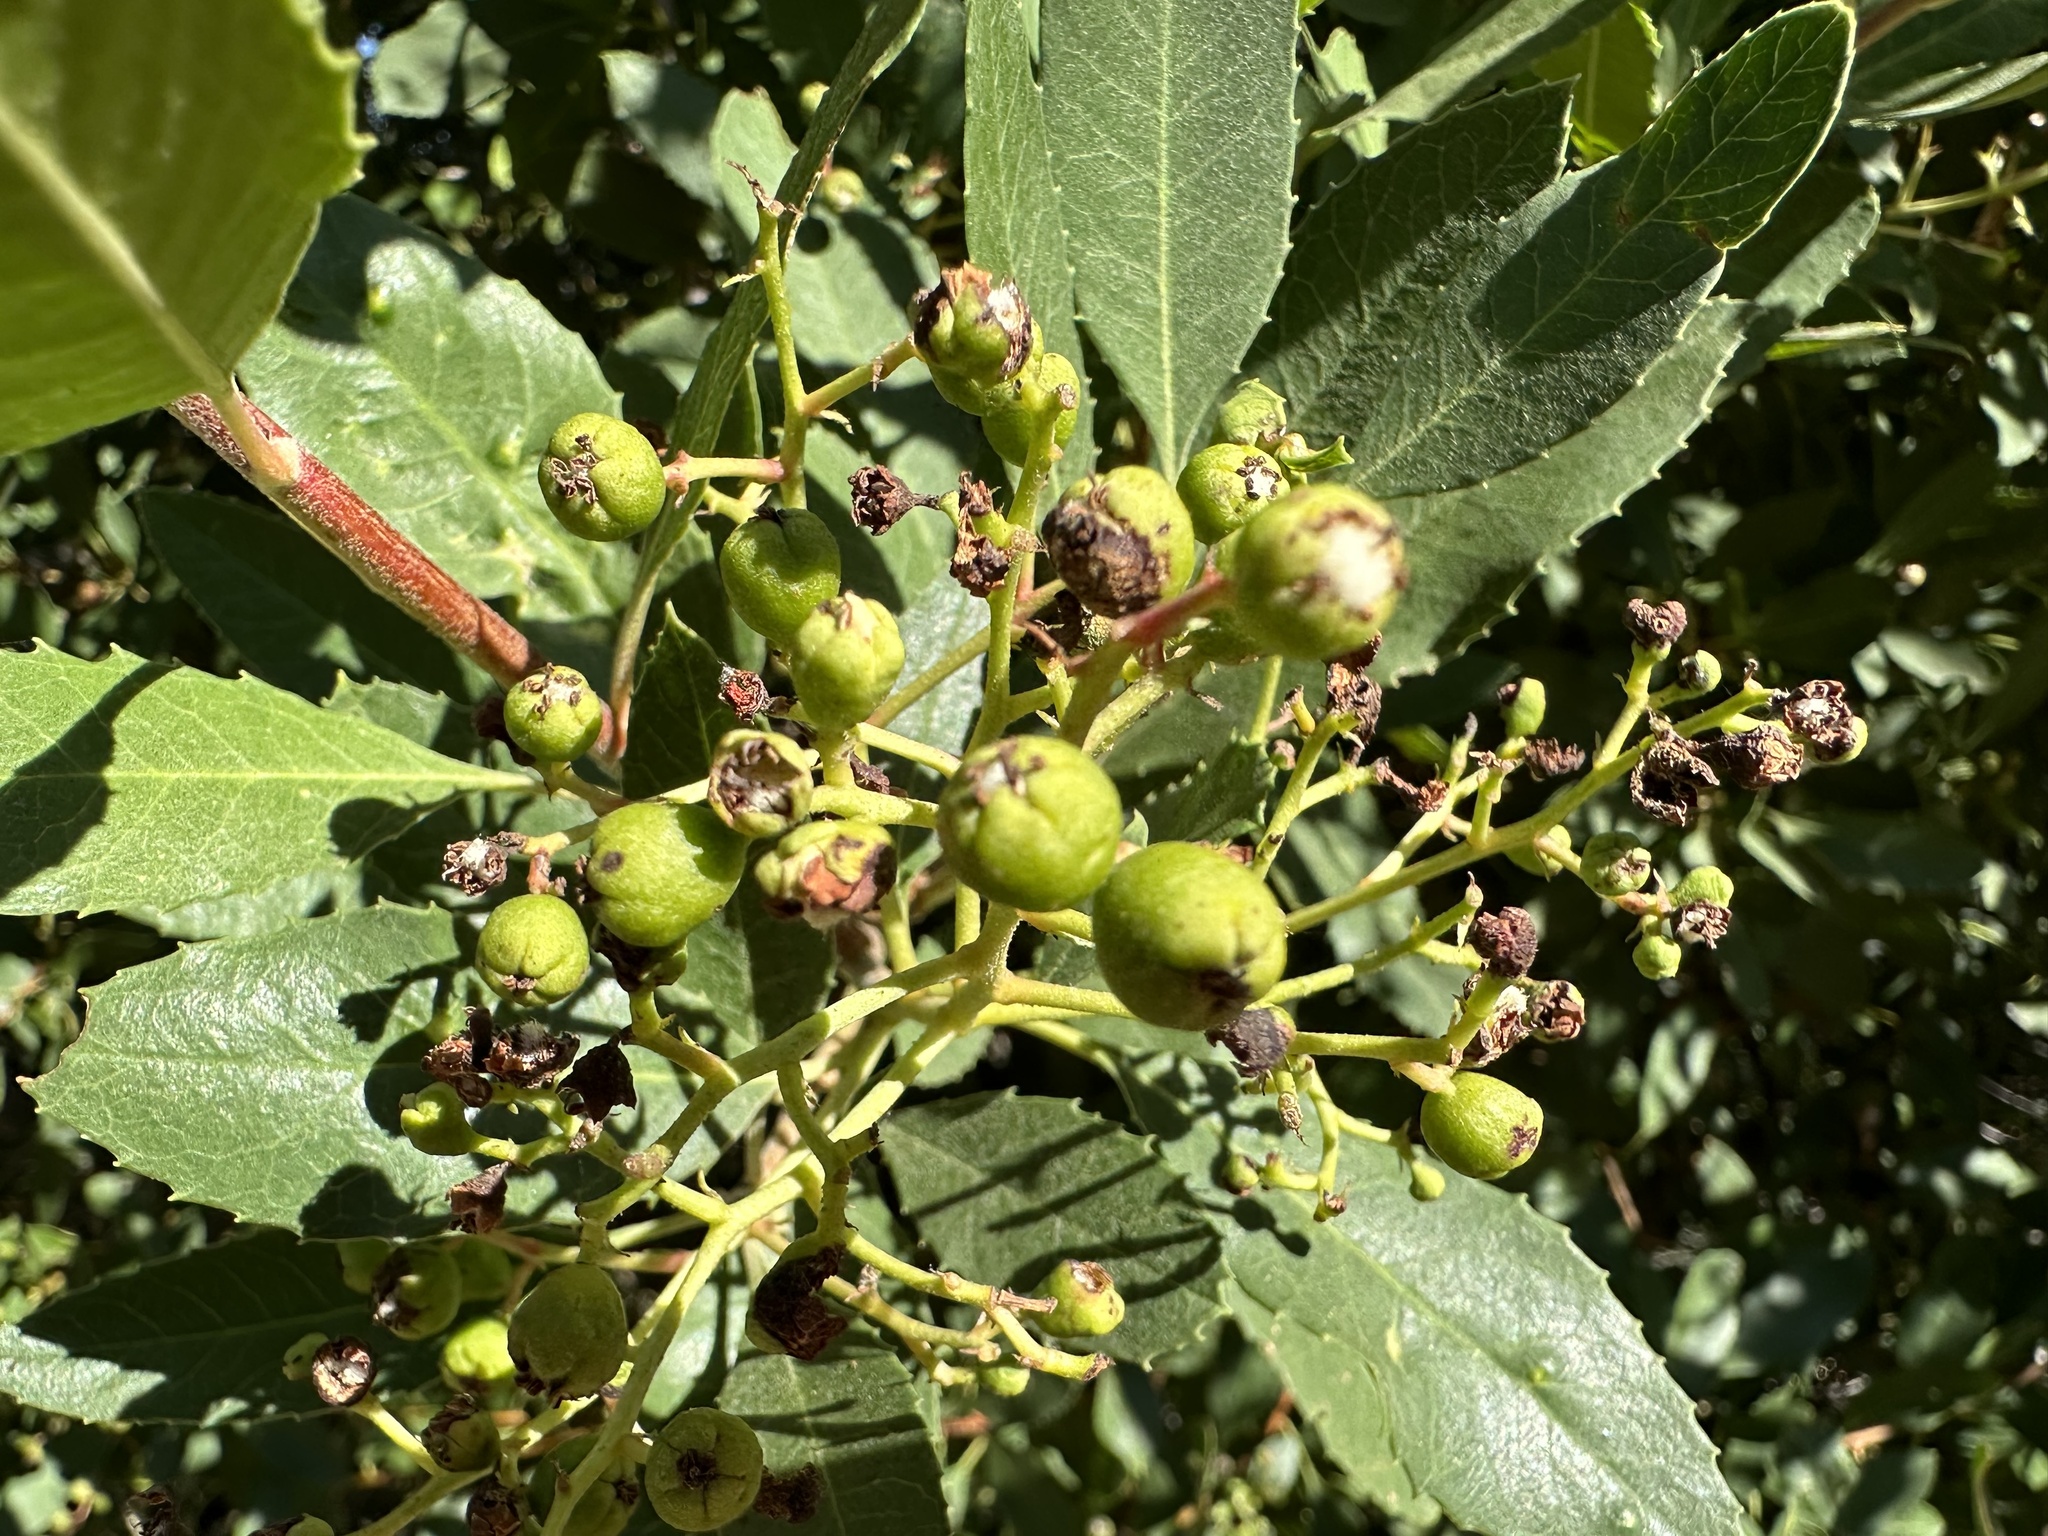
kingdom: Plantae
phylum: Tracheophyta
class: Magnoliopsida
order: Rosales
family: Rosaceae
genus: Heteromeles
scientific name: Heteromeles arbutifolia
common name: California-holly
